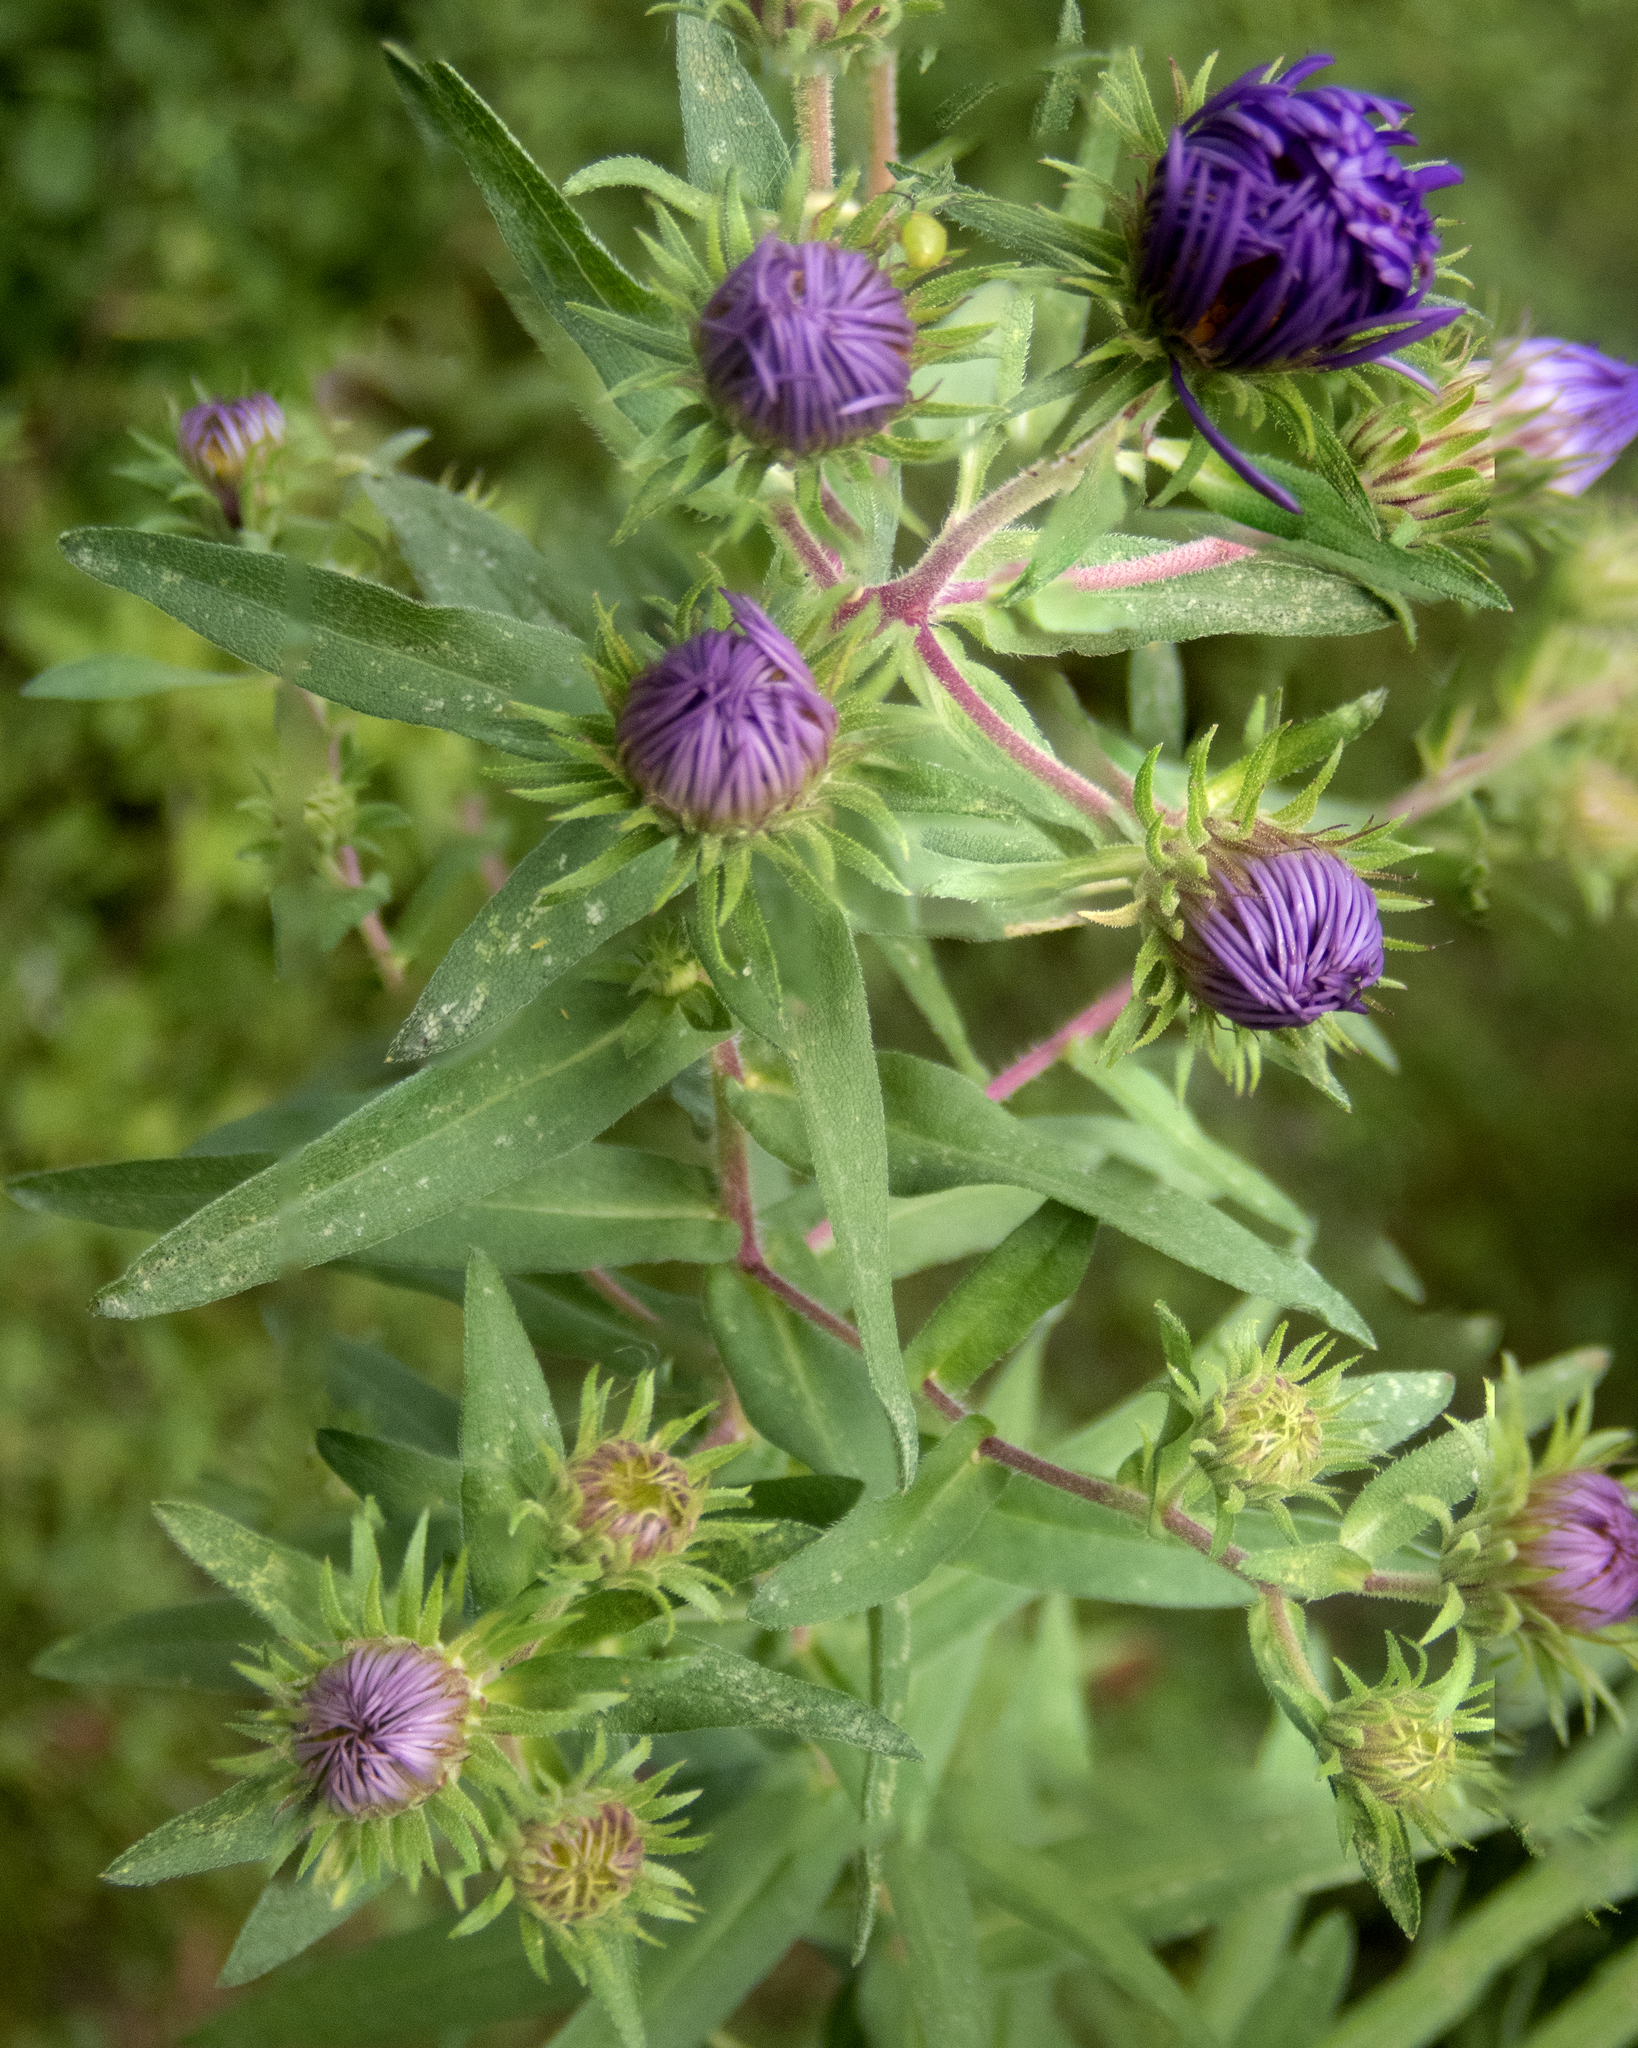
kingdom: Plantae
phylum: Tracheophyta
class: Magnoliopsida
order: Asterales
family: Asteraceae
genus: Symphyotrichum
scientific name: Symphyotrichum novae-angliae
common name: Michaelmas daisy
